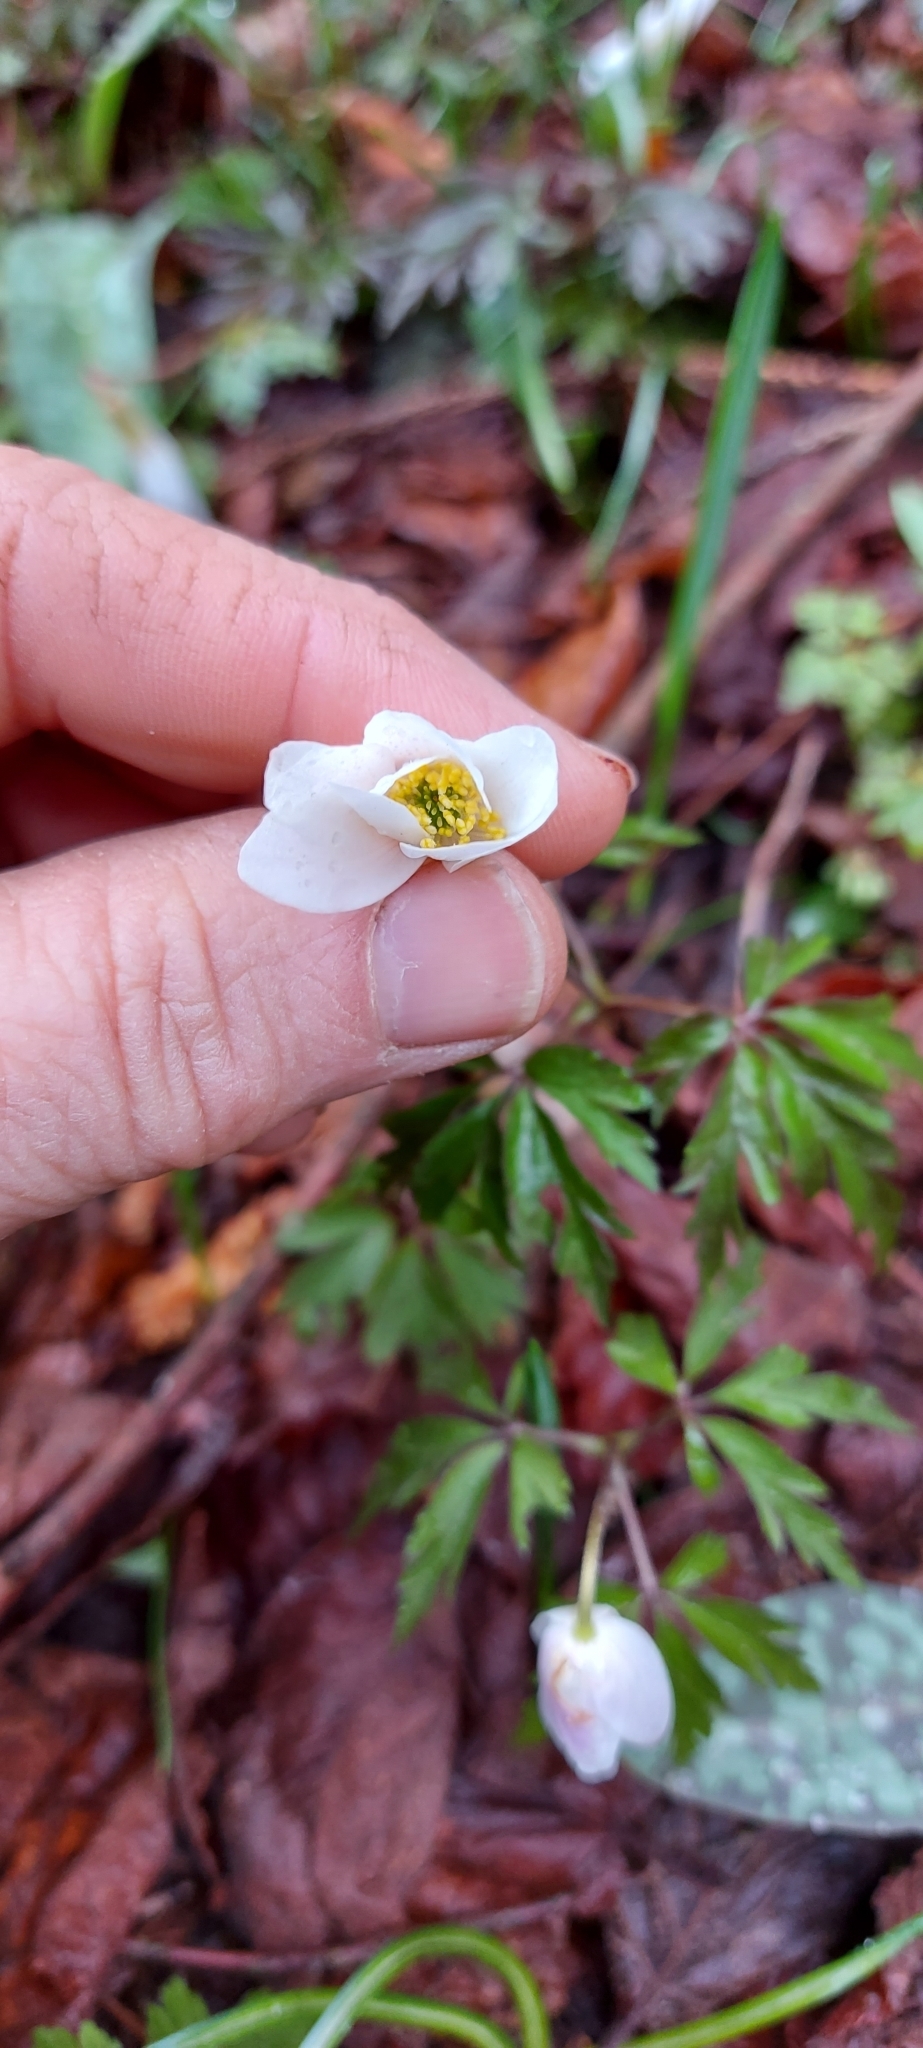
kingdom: Plantae
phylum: Tracheophyta
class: Magnoliopsida
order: Ranunculales
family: Ranunculaceae
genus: Anemone
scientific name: Anemone nemorosa
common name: Wood anemone
